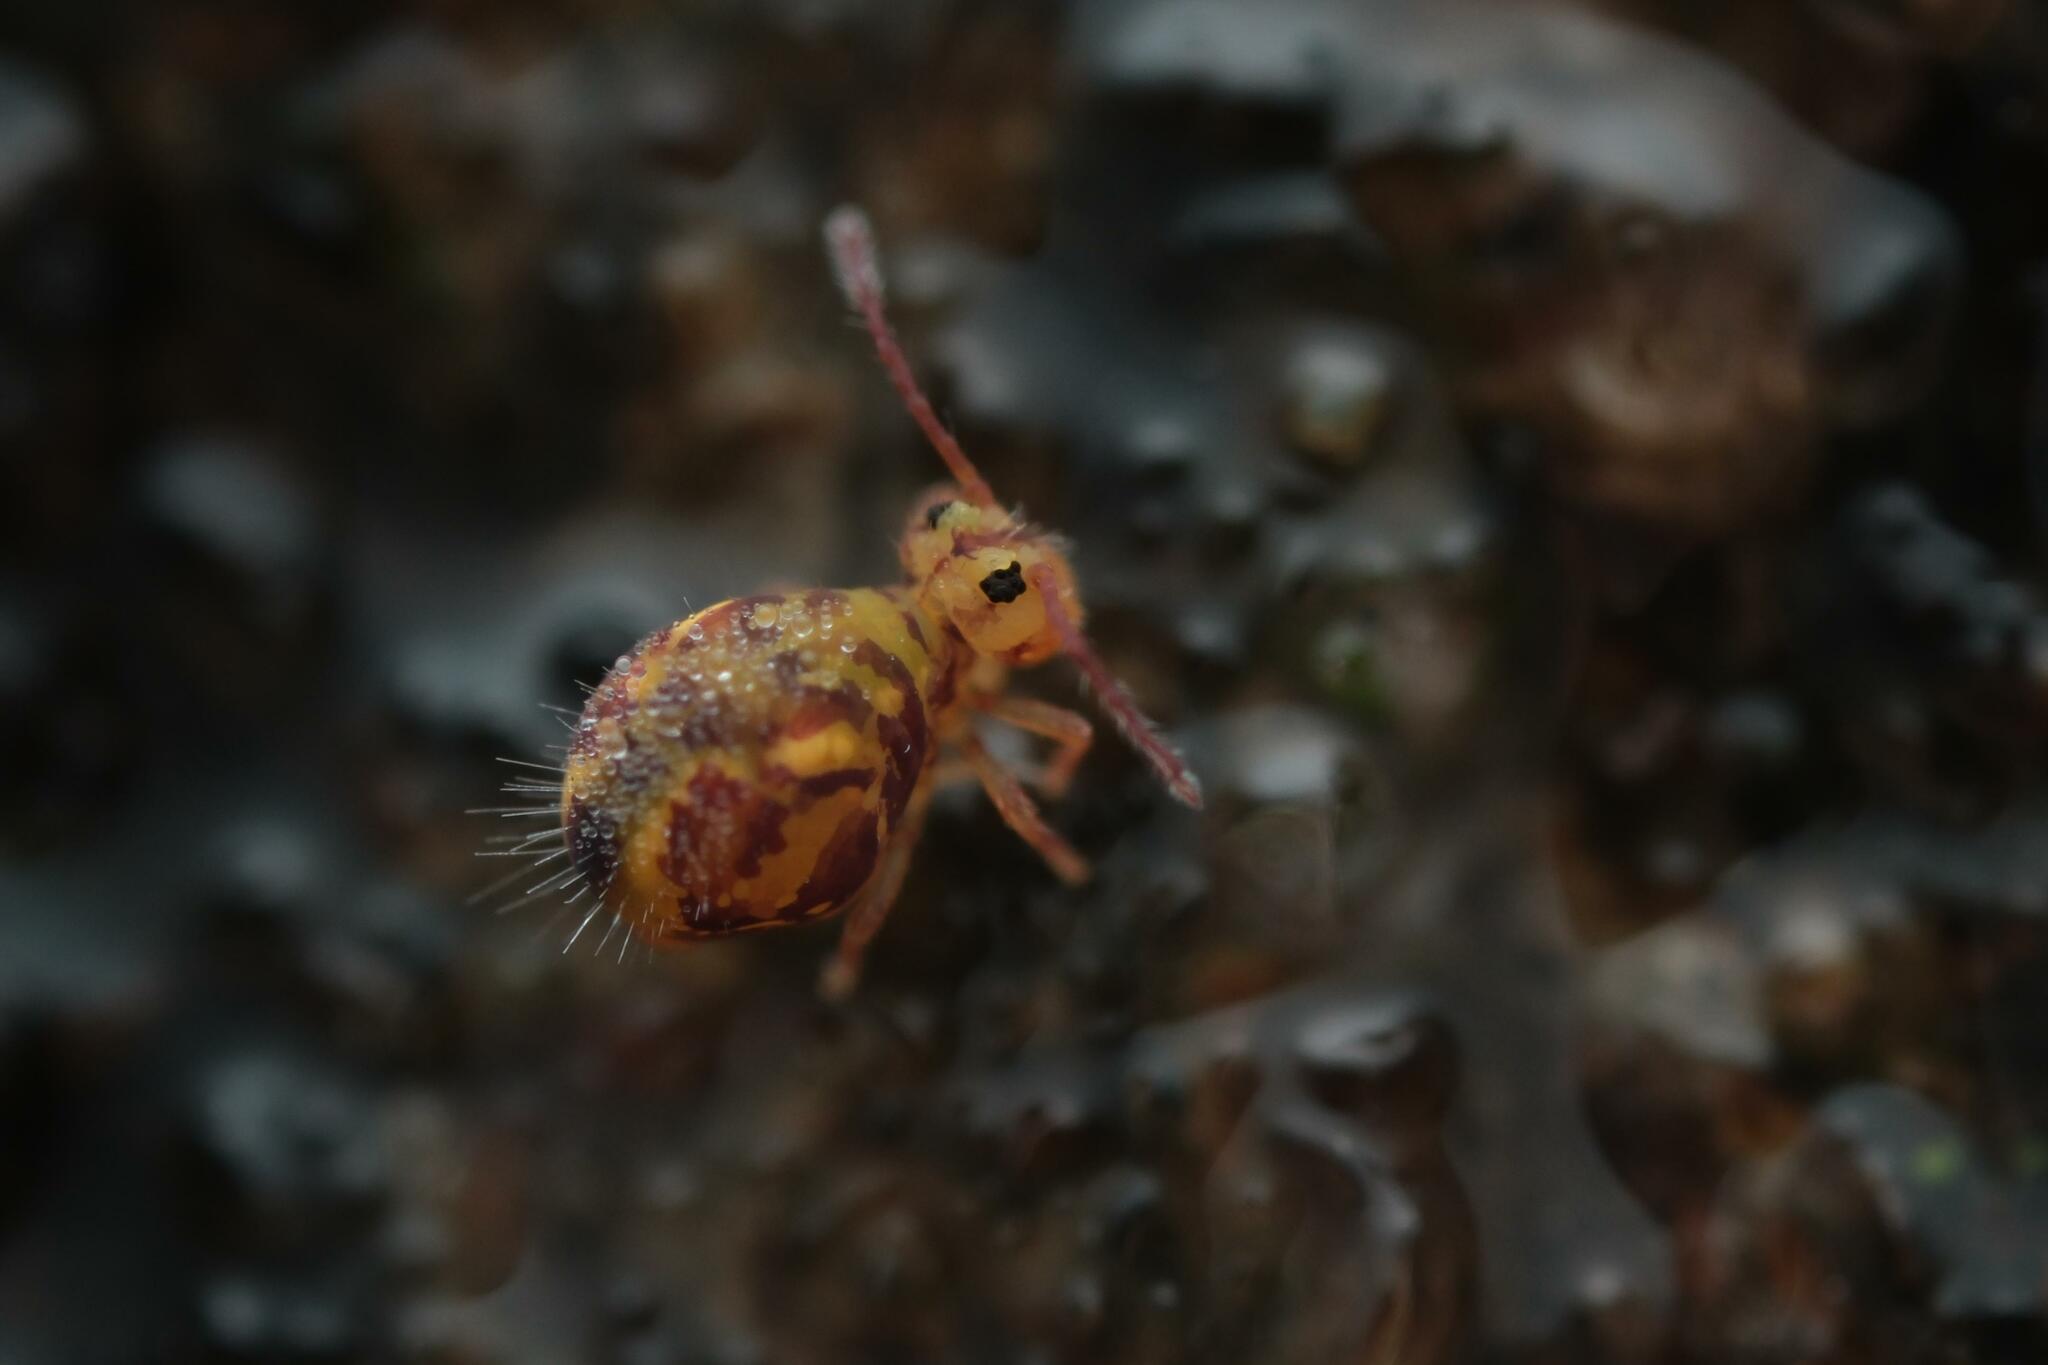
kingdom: Animalia
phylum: Arthropoda
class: Collembola
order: Symphypleona
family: Dicyrtomidae
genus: Dicyrtomina
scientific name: Dicyrtomina ornata
